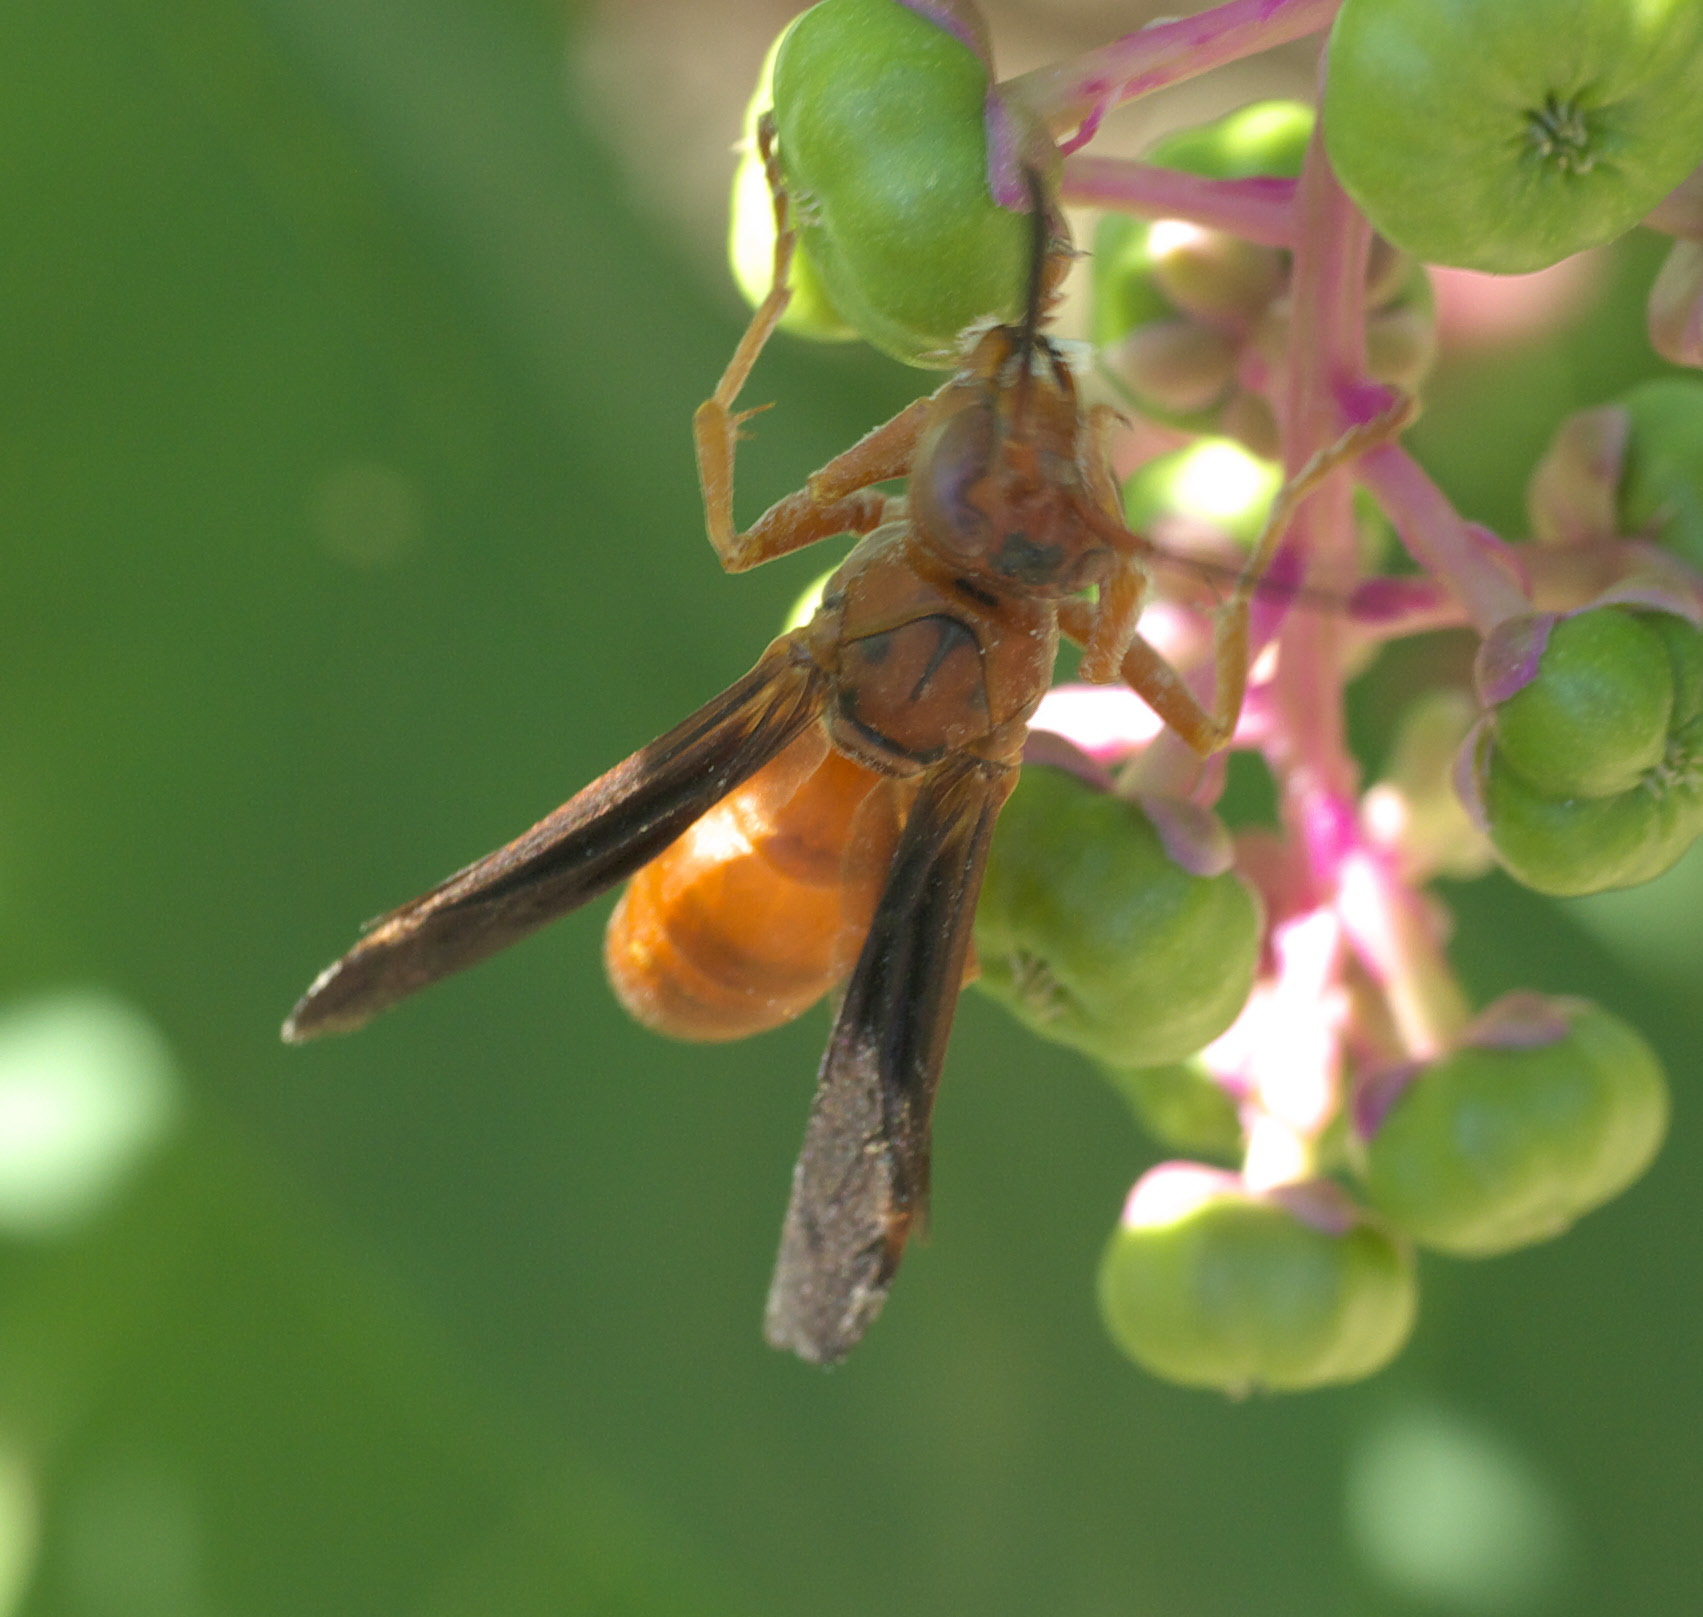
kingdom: Animalia
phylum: Arthropoda
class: Insecta
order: Hymenoptera
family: Eumenidae
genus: Polistes
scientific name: Polistes carolina
